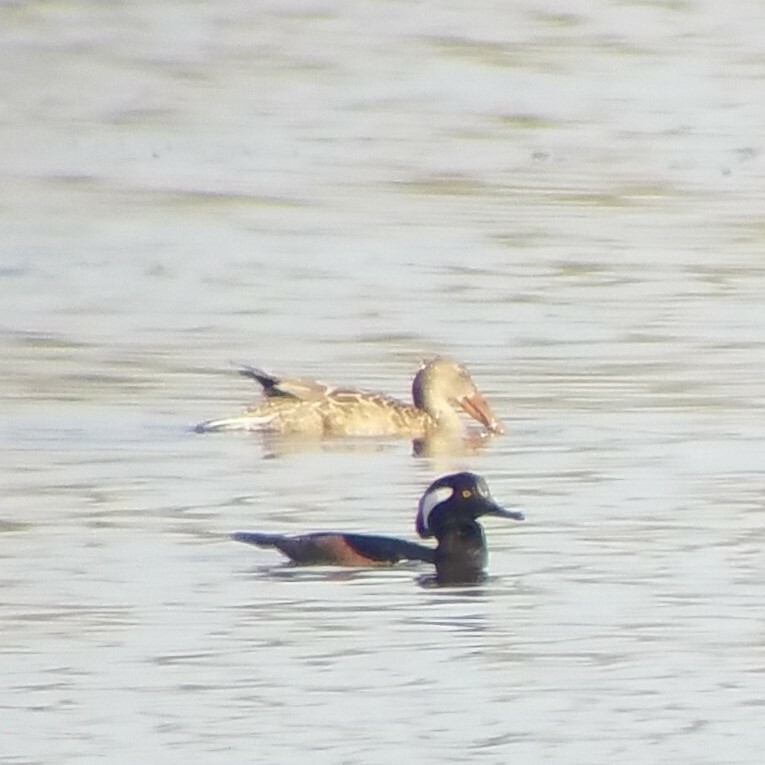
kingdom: Animalia
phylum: Chordata
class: Aves
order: Anseriformes
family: Anatidae
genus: Spatula
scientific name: Spatula clypeata
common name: Northern shoveler
